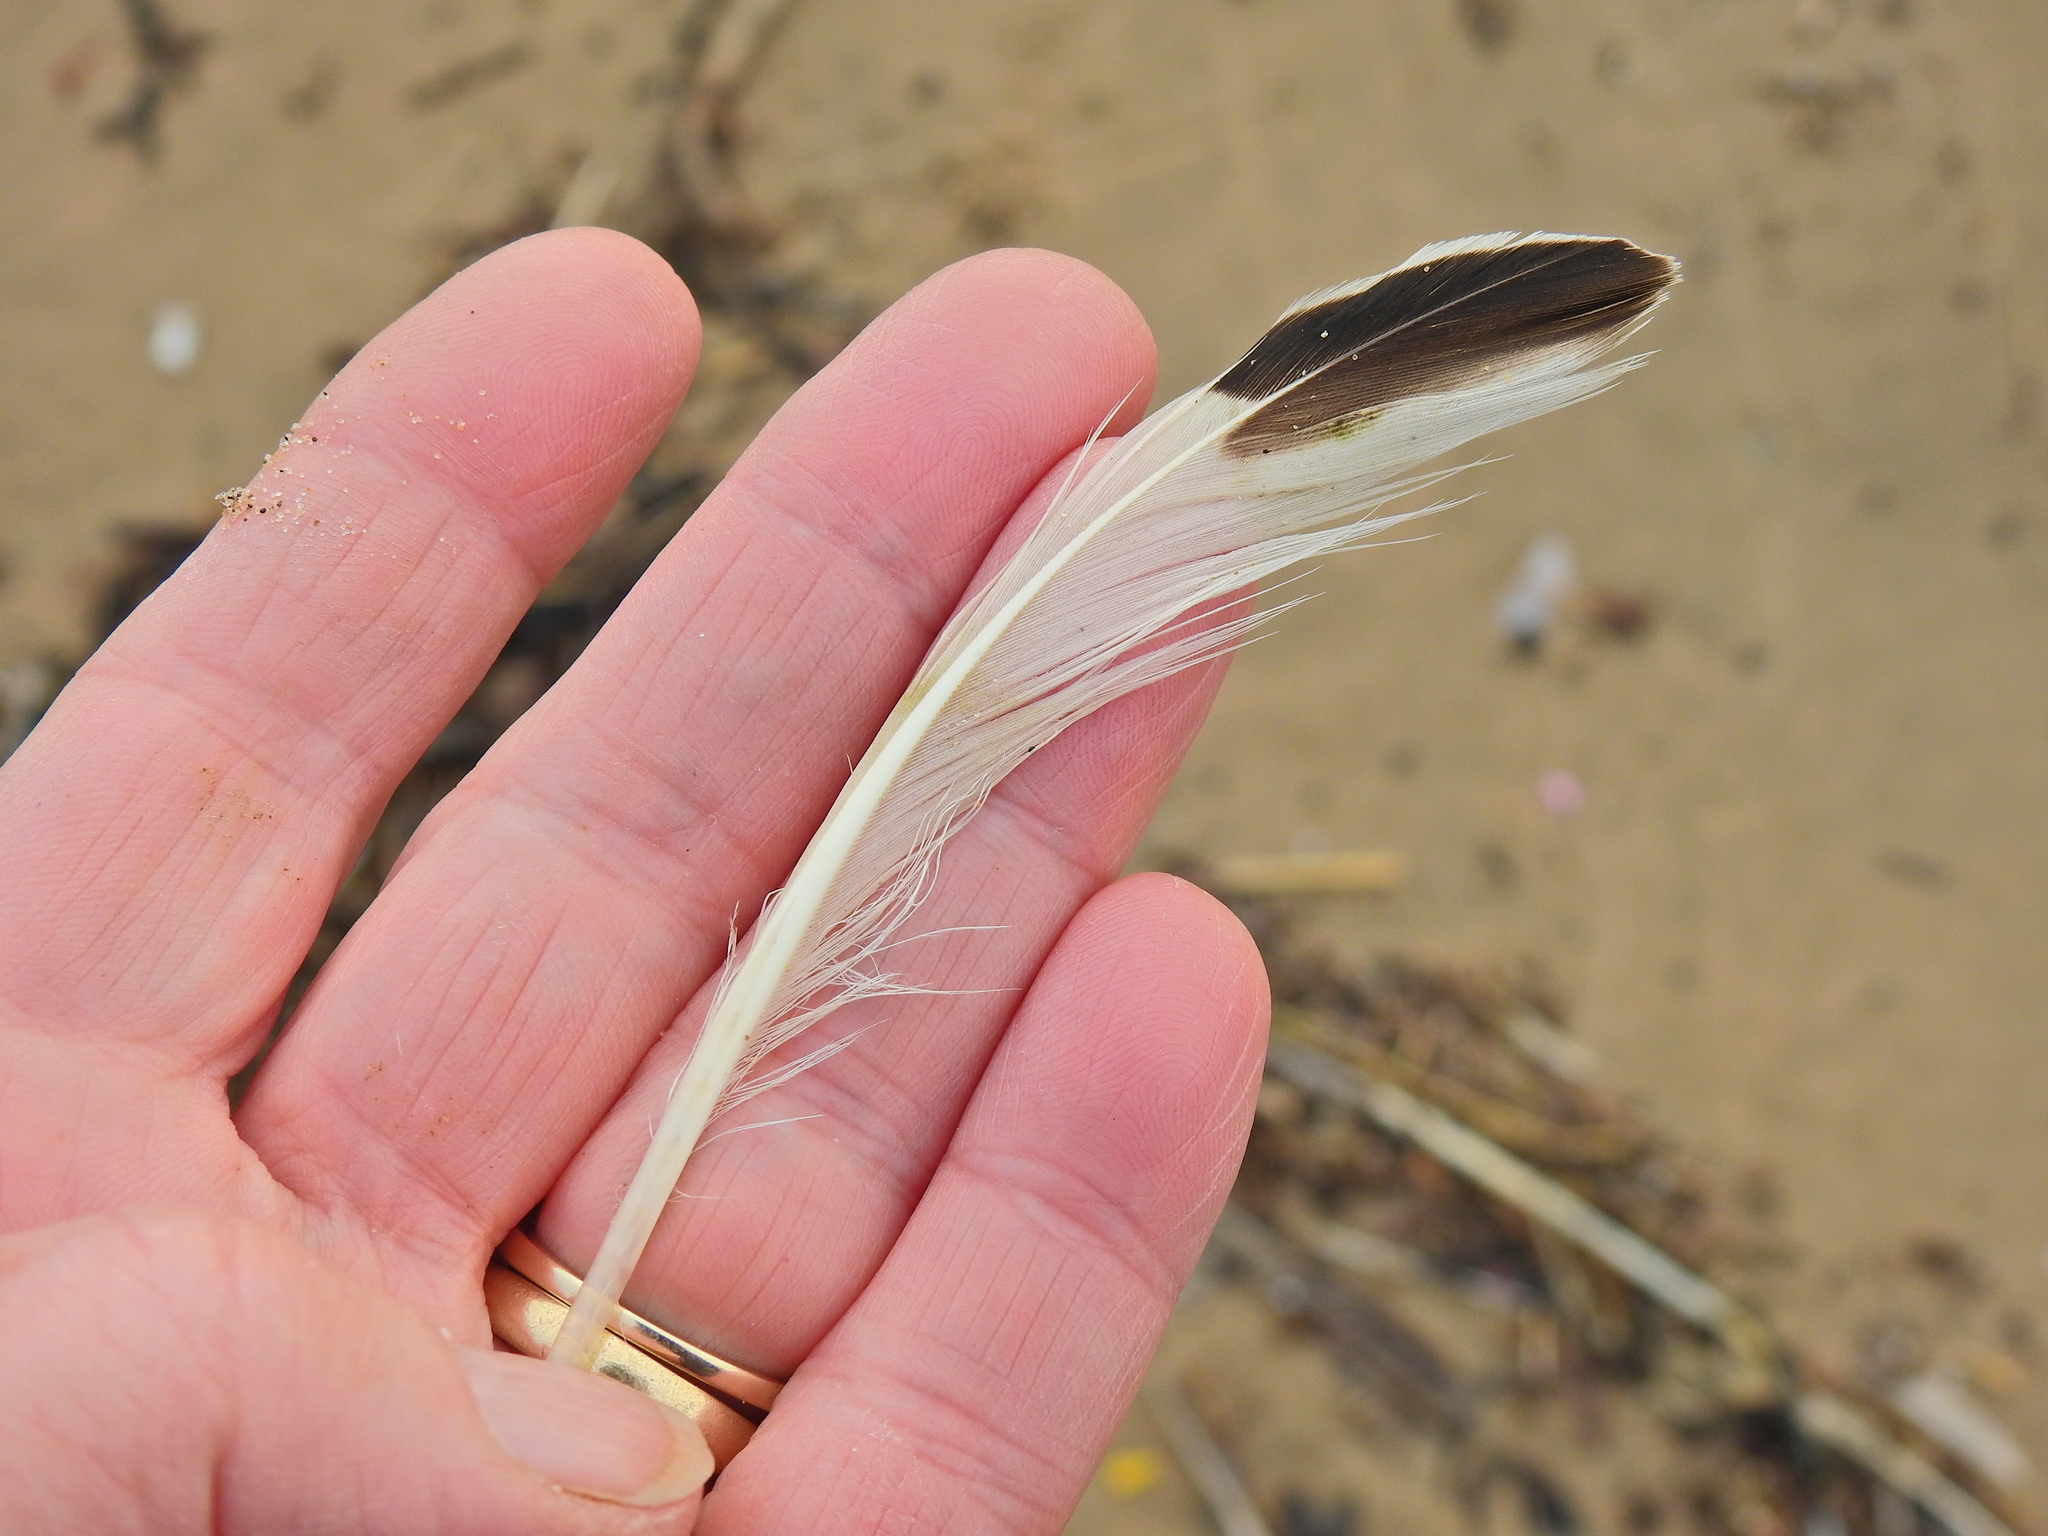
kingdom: Animalia
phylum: Chordata
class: Aves
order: Charadriiformes
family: Haematopodidae
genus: Haematopus
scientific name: Haematopus ostralegus
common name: Eurasian oystercatcher
